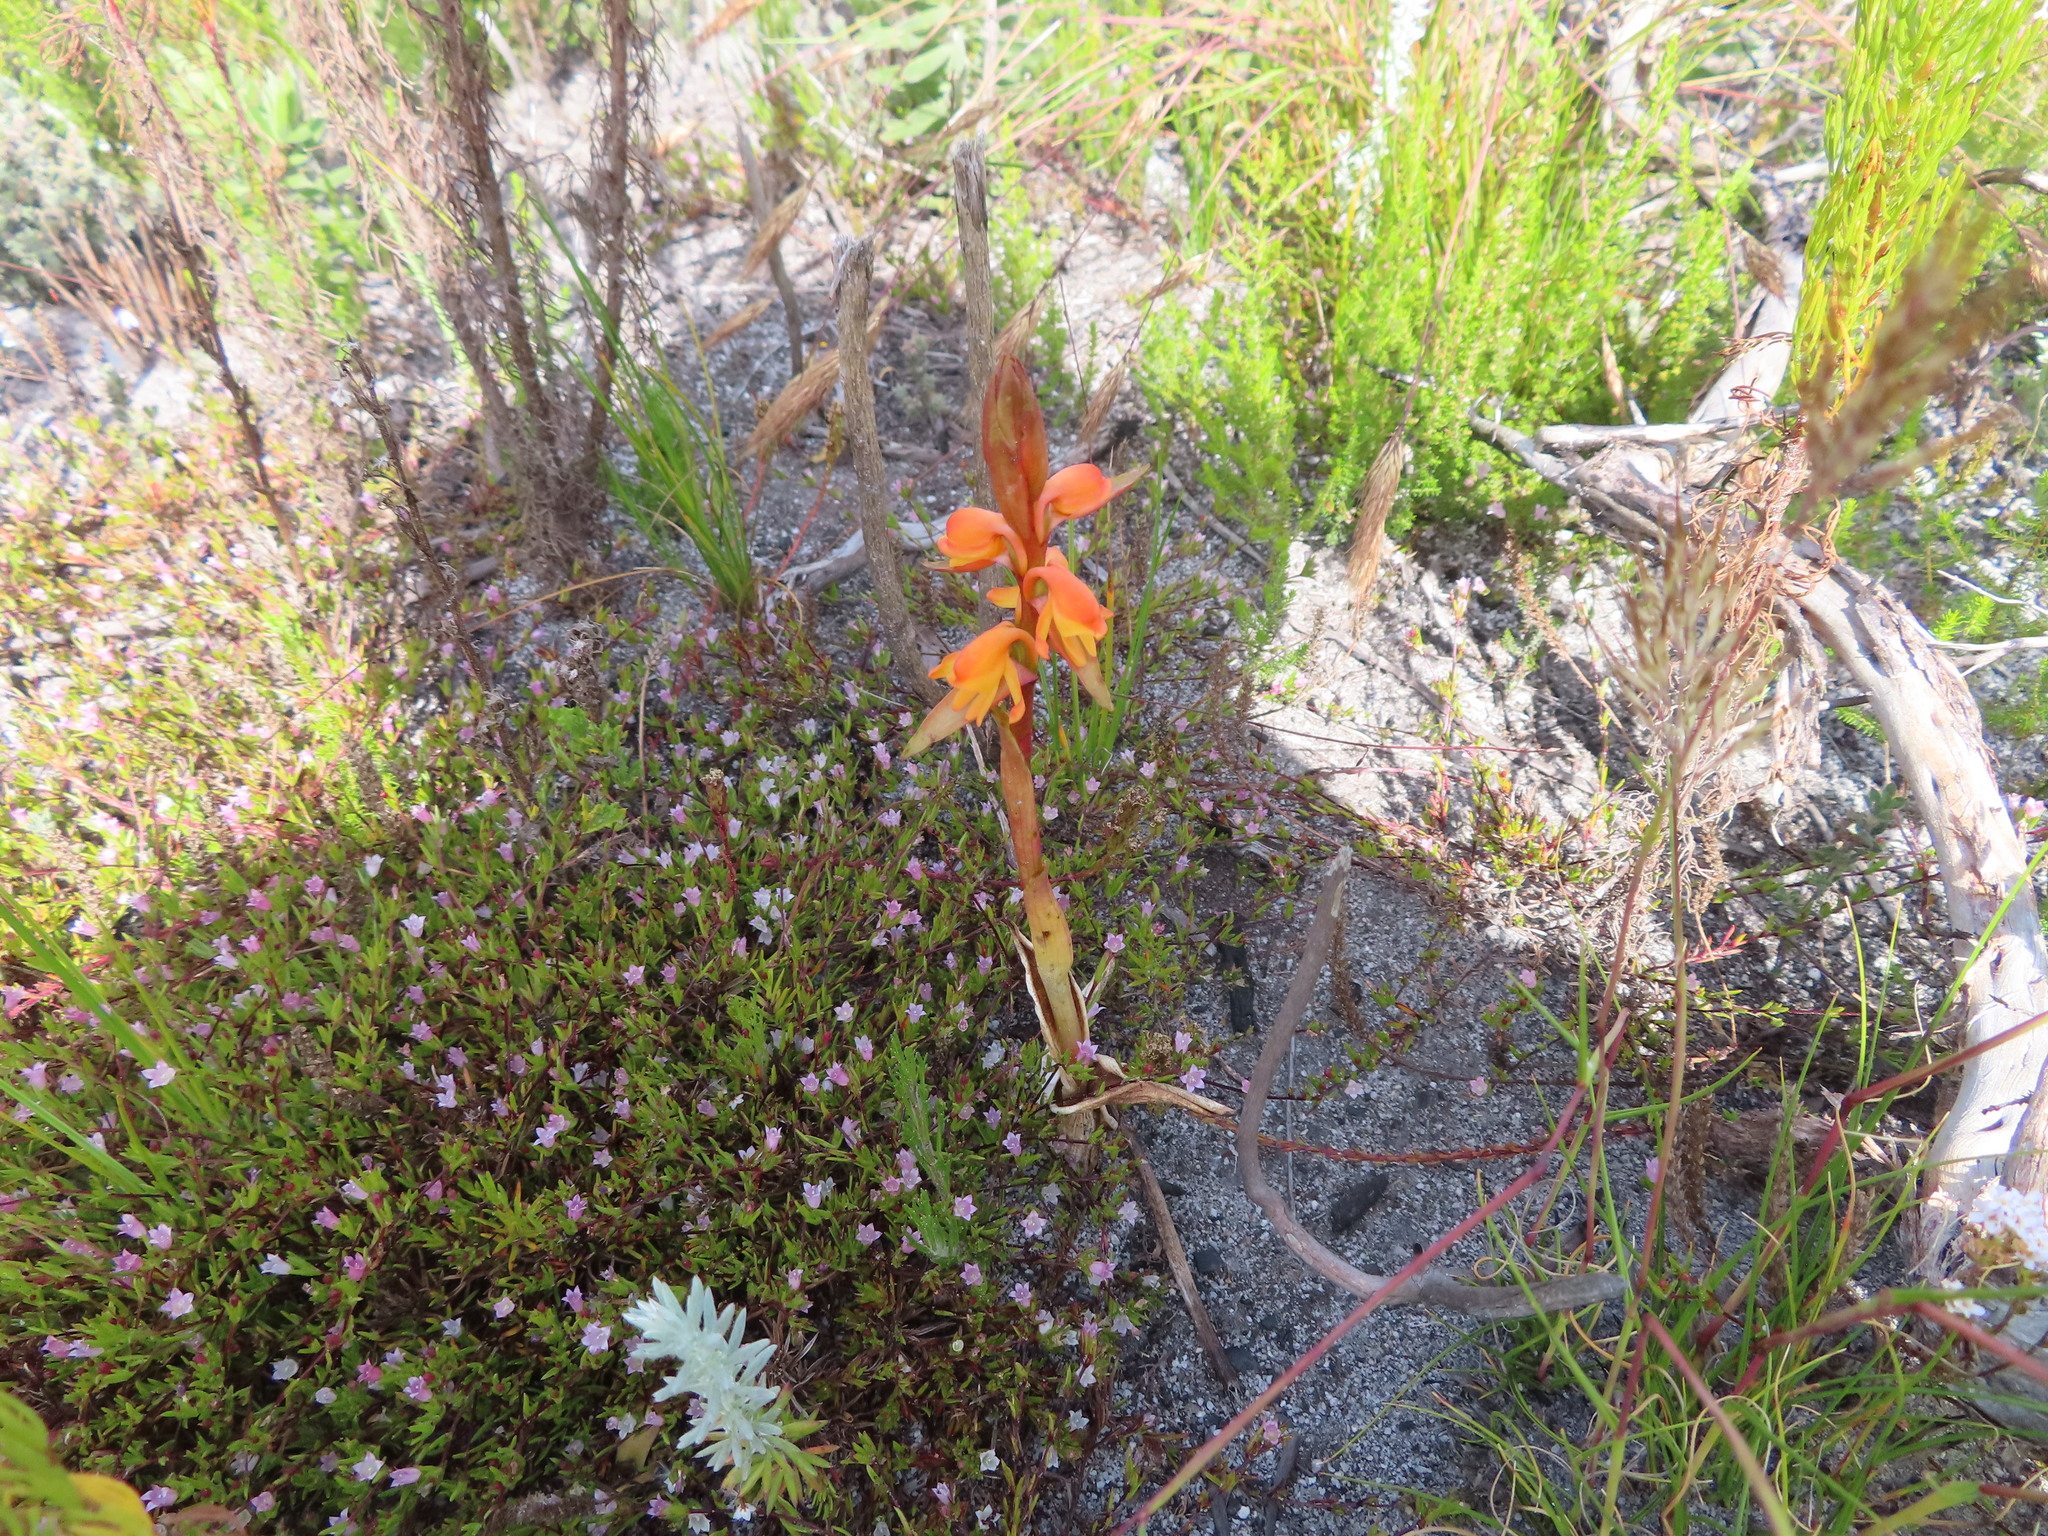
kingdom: Plantae
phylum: Tracheophyta
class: Liliopsida
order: Asparagales
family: Orchidaceae
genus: Satyrium
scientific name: Satyrium coriifolium
